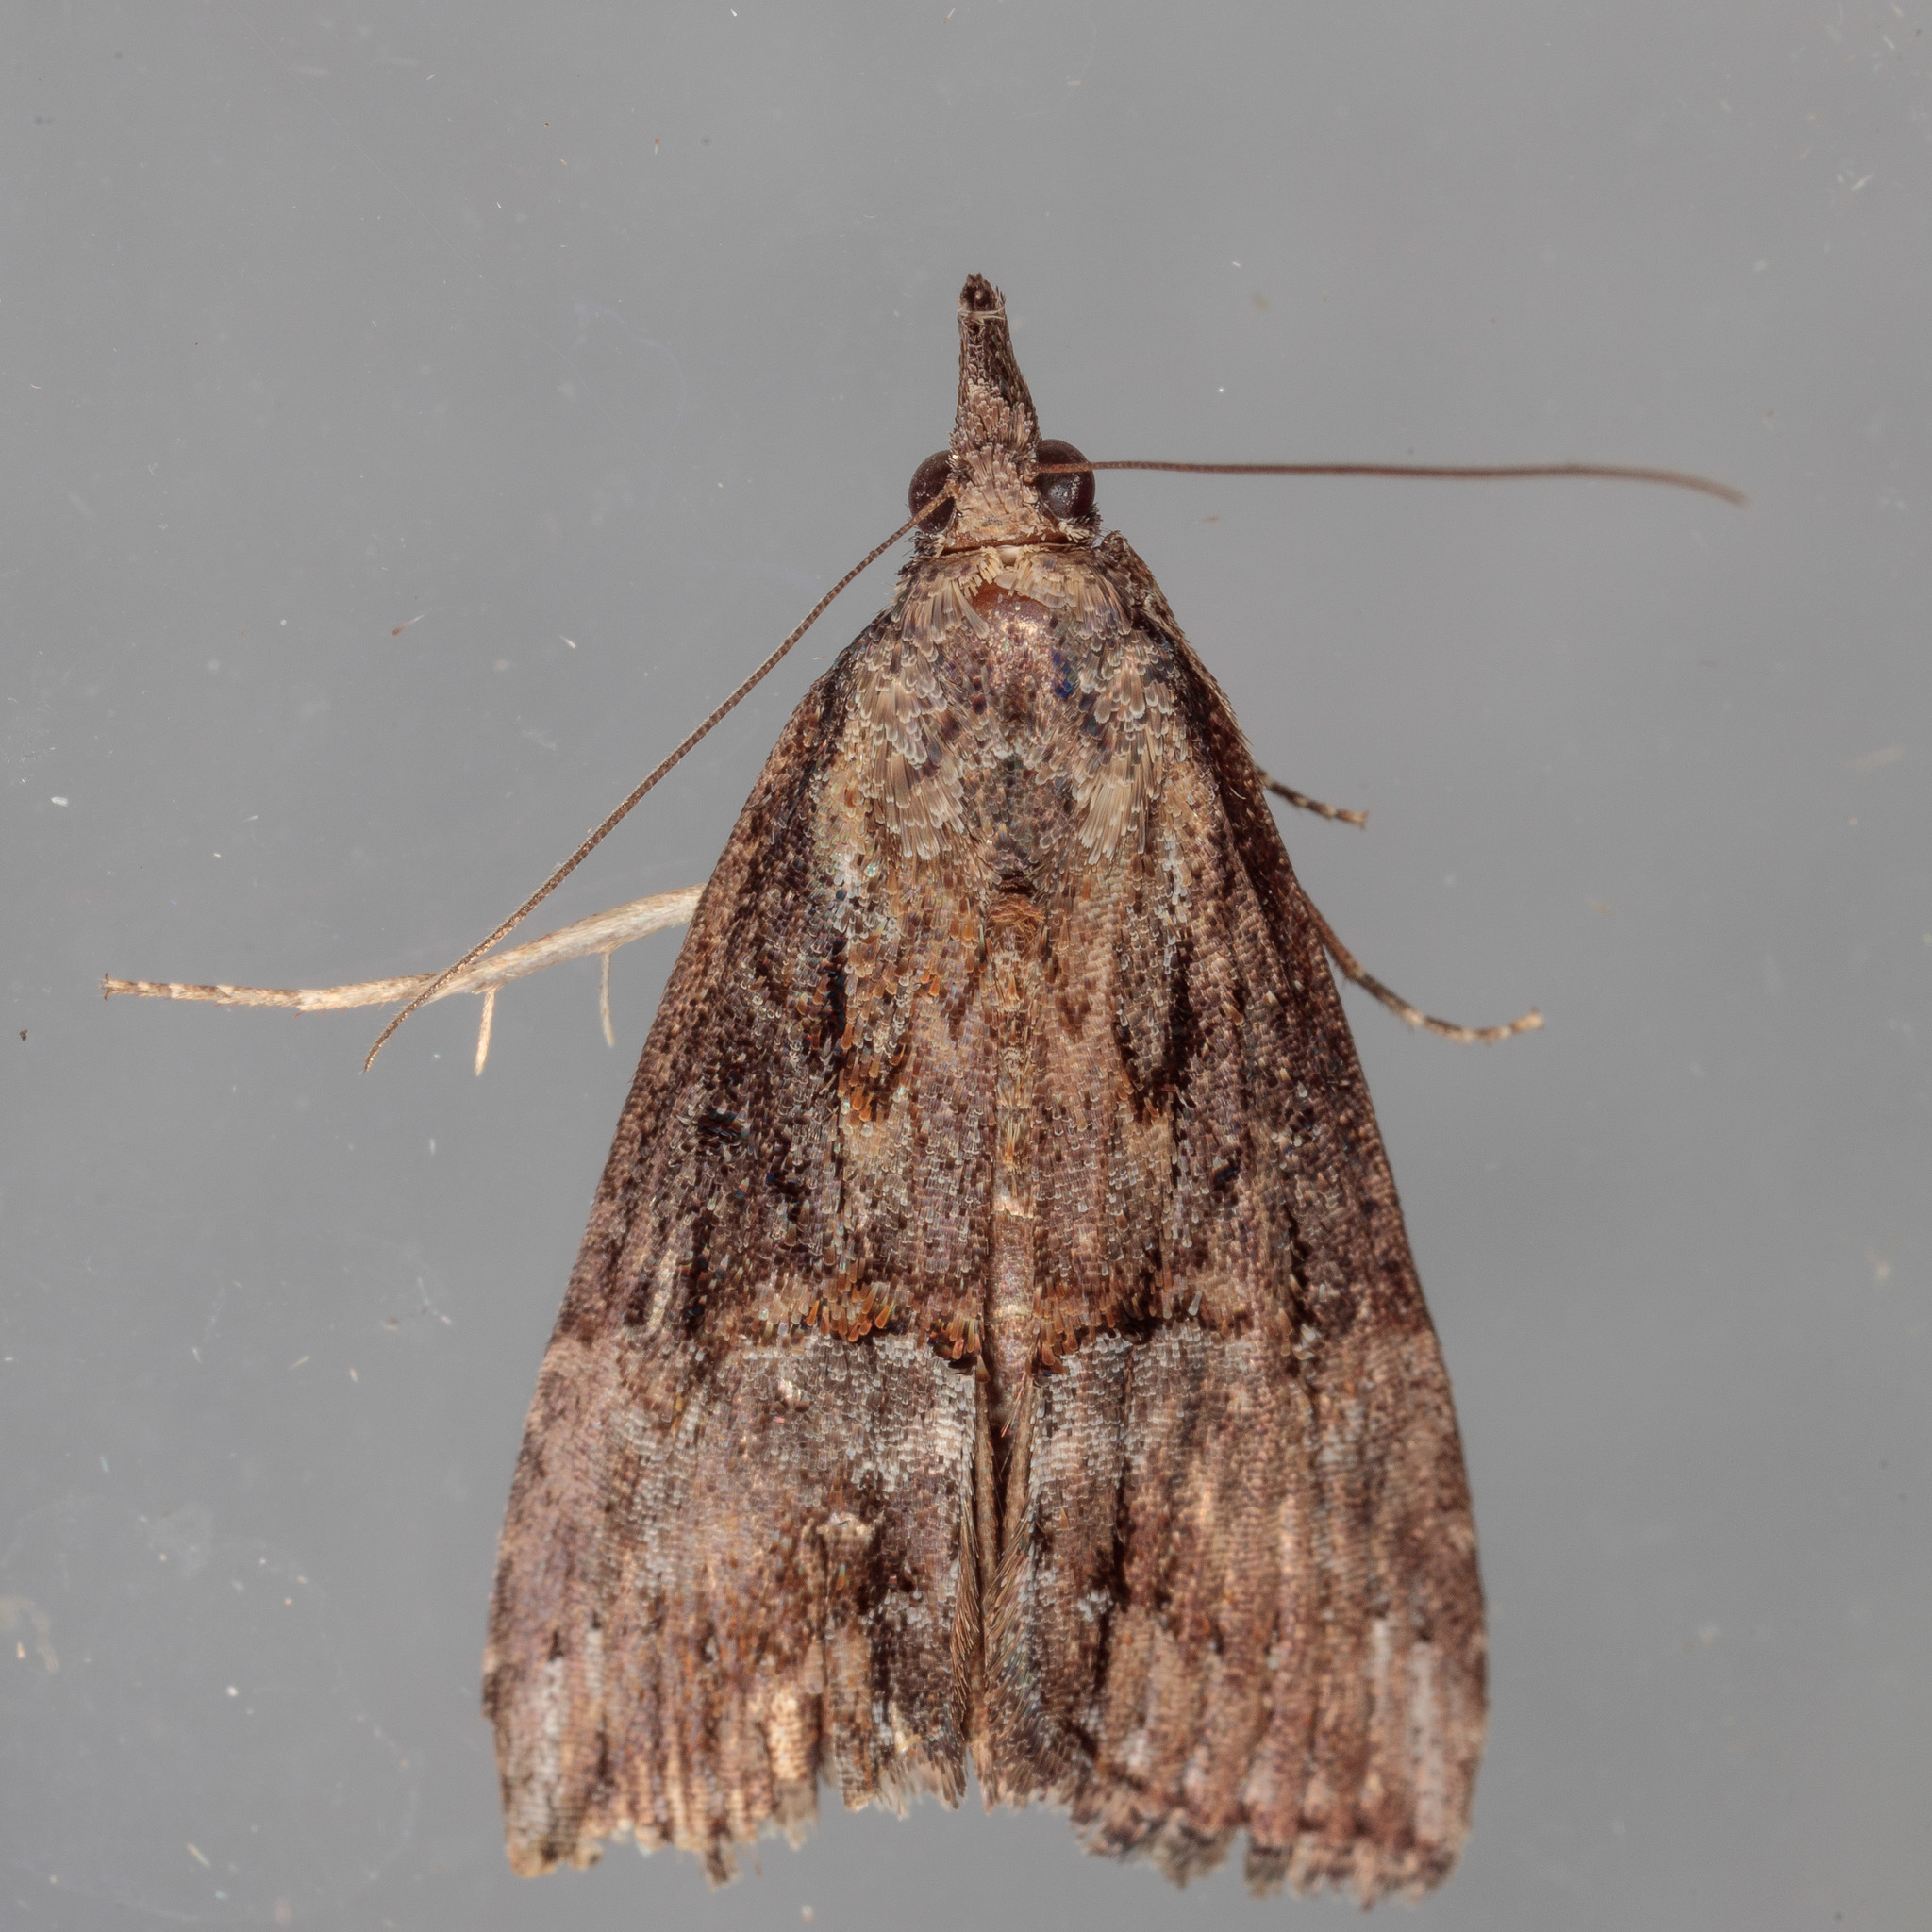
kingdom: Animalia
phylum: Arthropoda
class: Insecta
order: Lepidoptera
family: Erebidae
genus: Hypena
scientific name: Hypena scabra
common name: Green cloverworm
